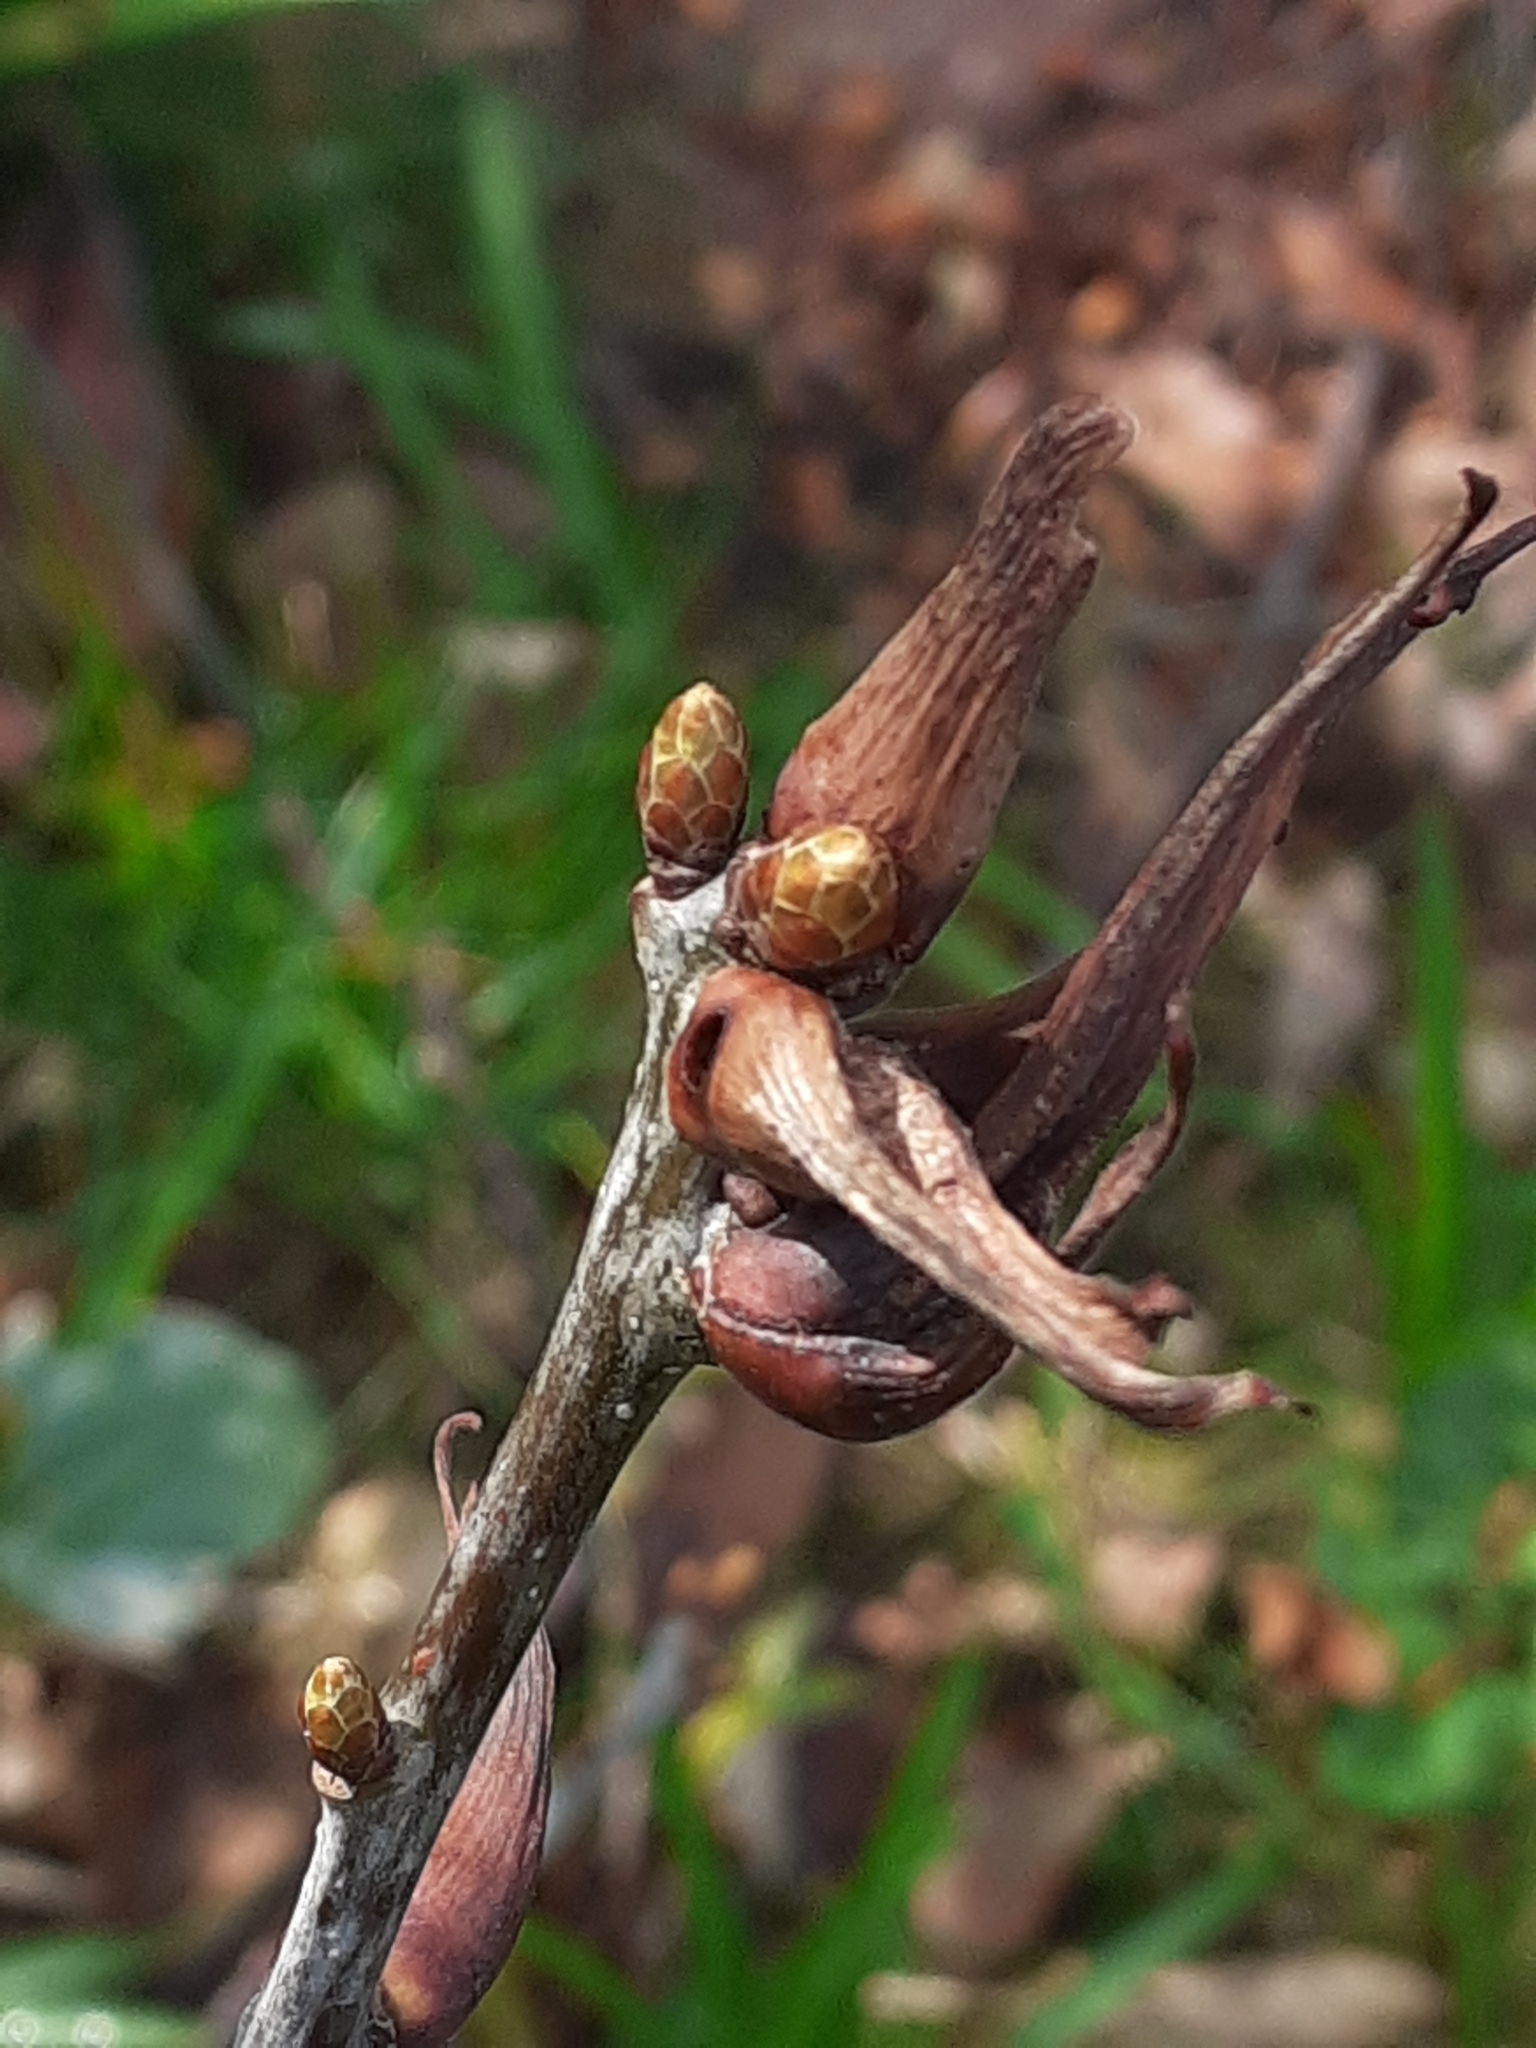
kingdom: Animalia
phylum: Arthropoda
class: Insecta
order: Hymenoptera
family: Cynipidae
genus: Andricus
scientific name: Andricus aries
